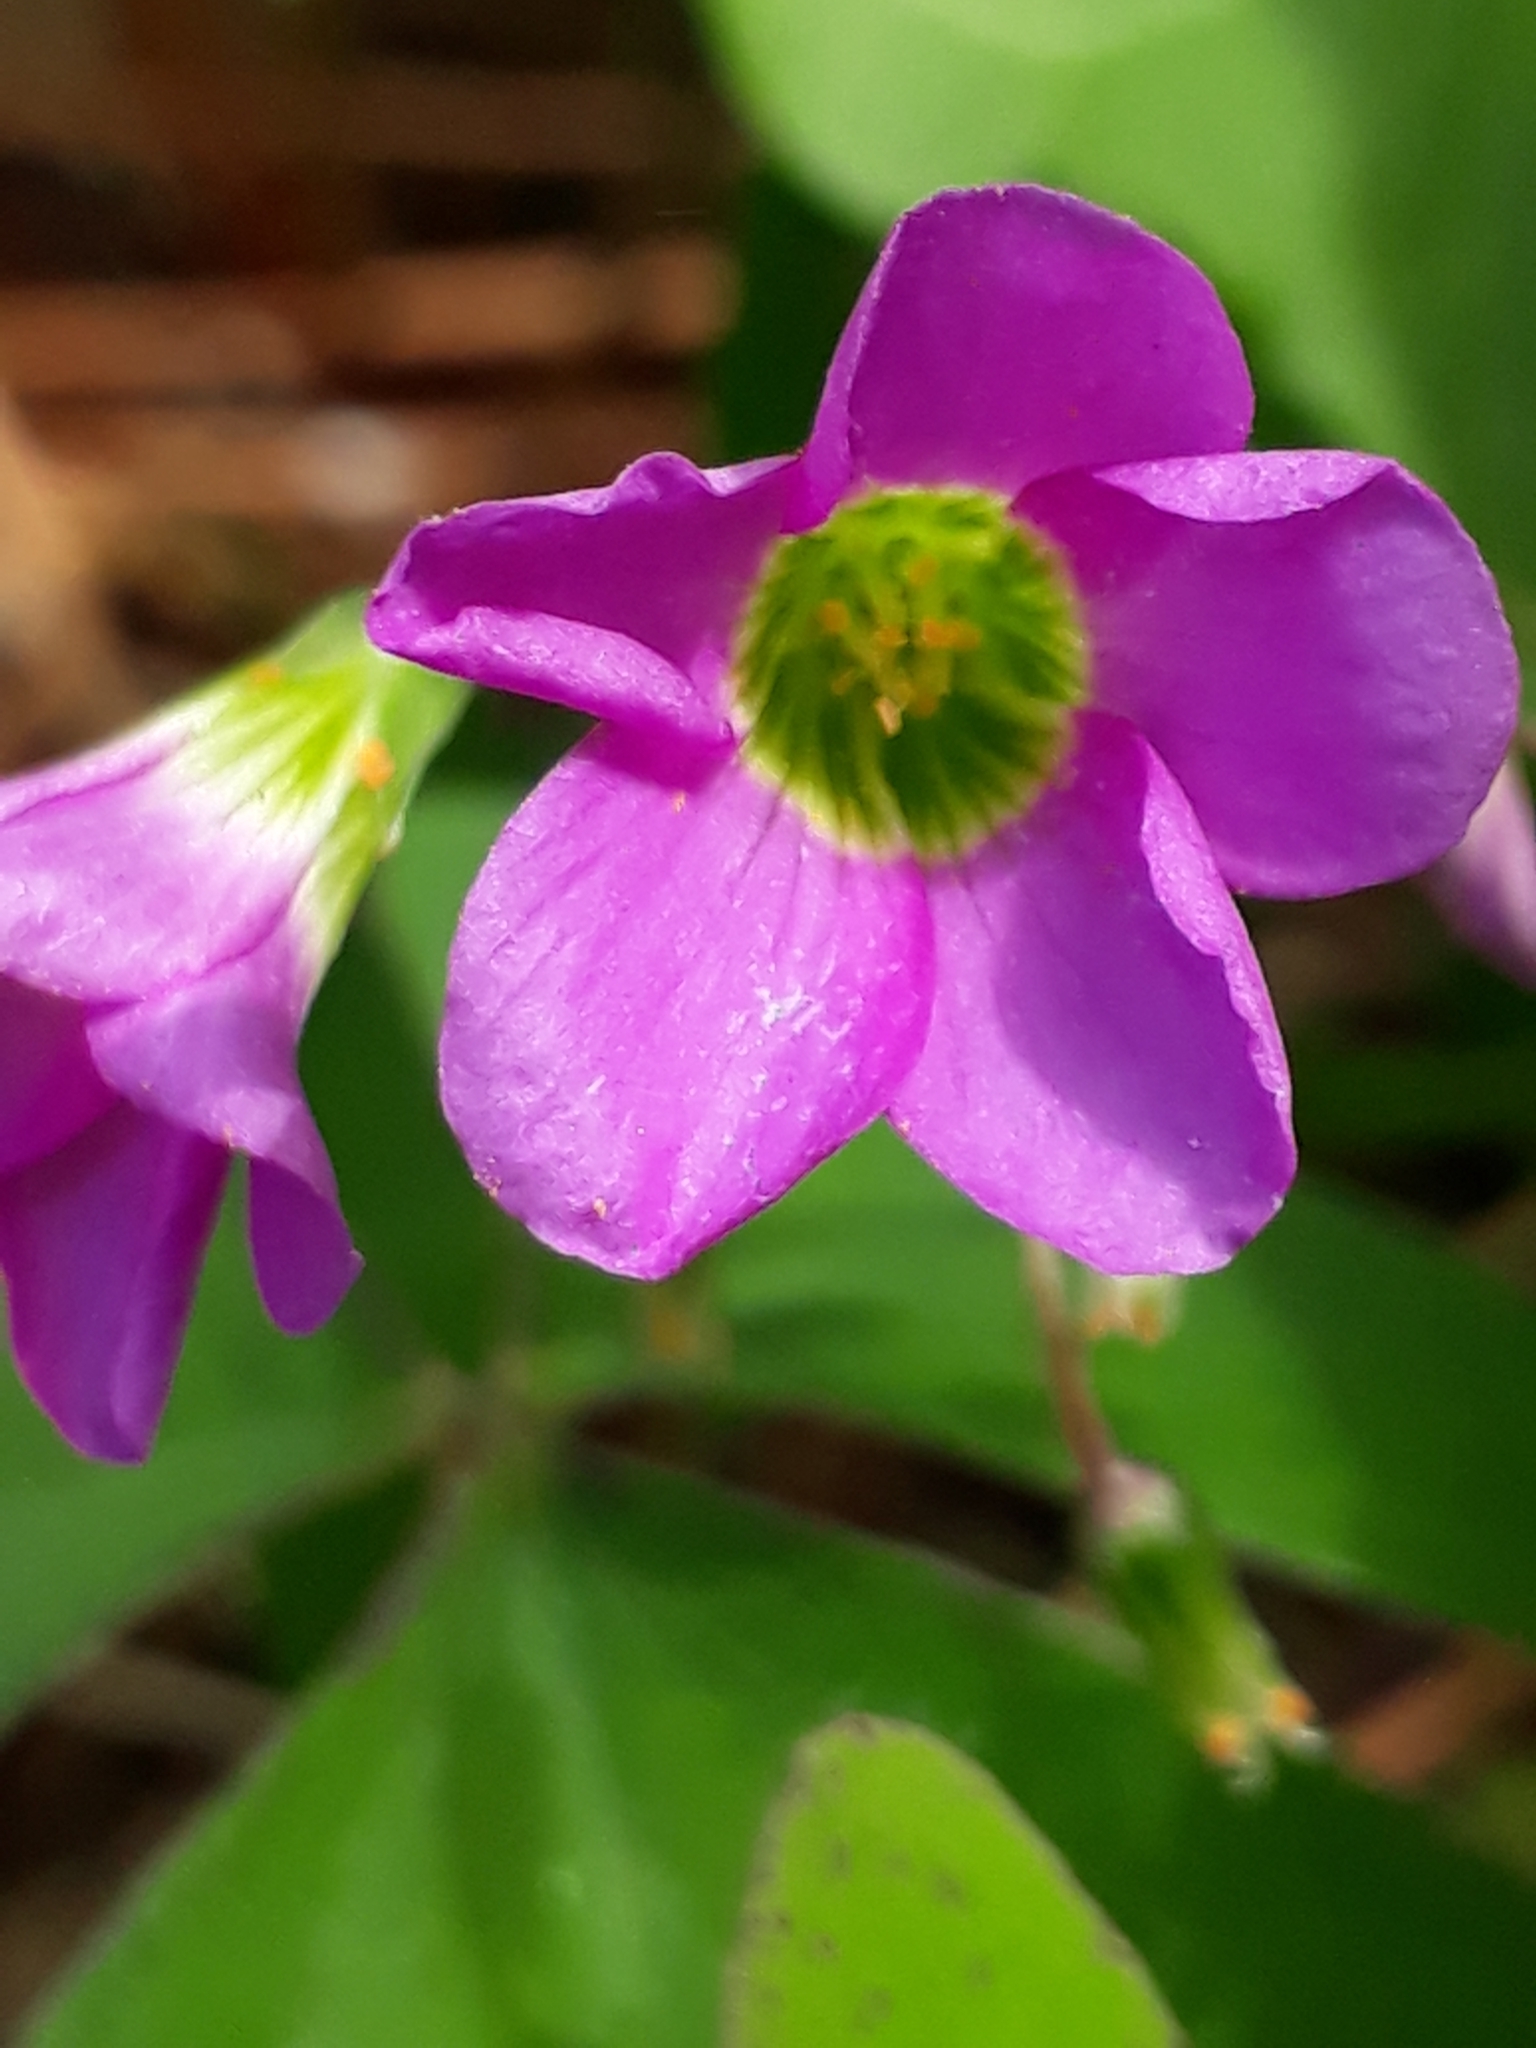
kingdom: Plantae
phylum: Tracheophyta
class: Magnoliopsida
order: Oxalidales
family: Oxalidaceae
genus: Oxalis
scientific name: Oxalis latifolia
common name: Garden pink-sorrel
